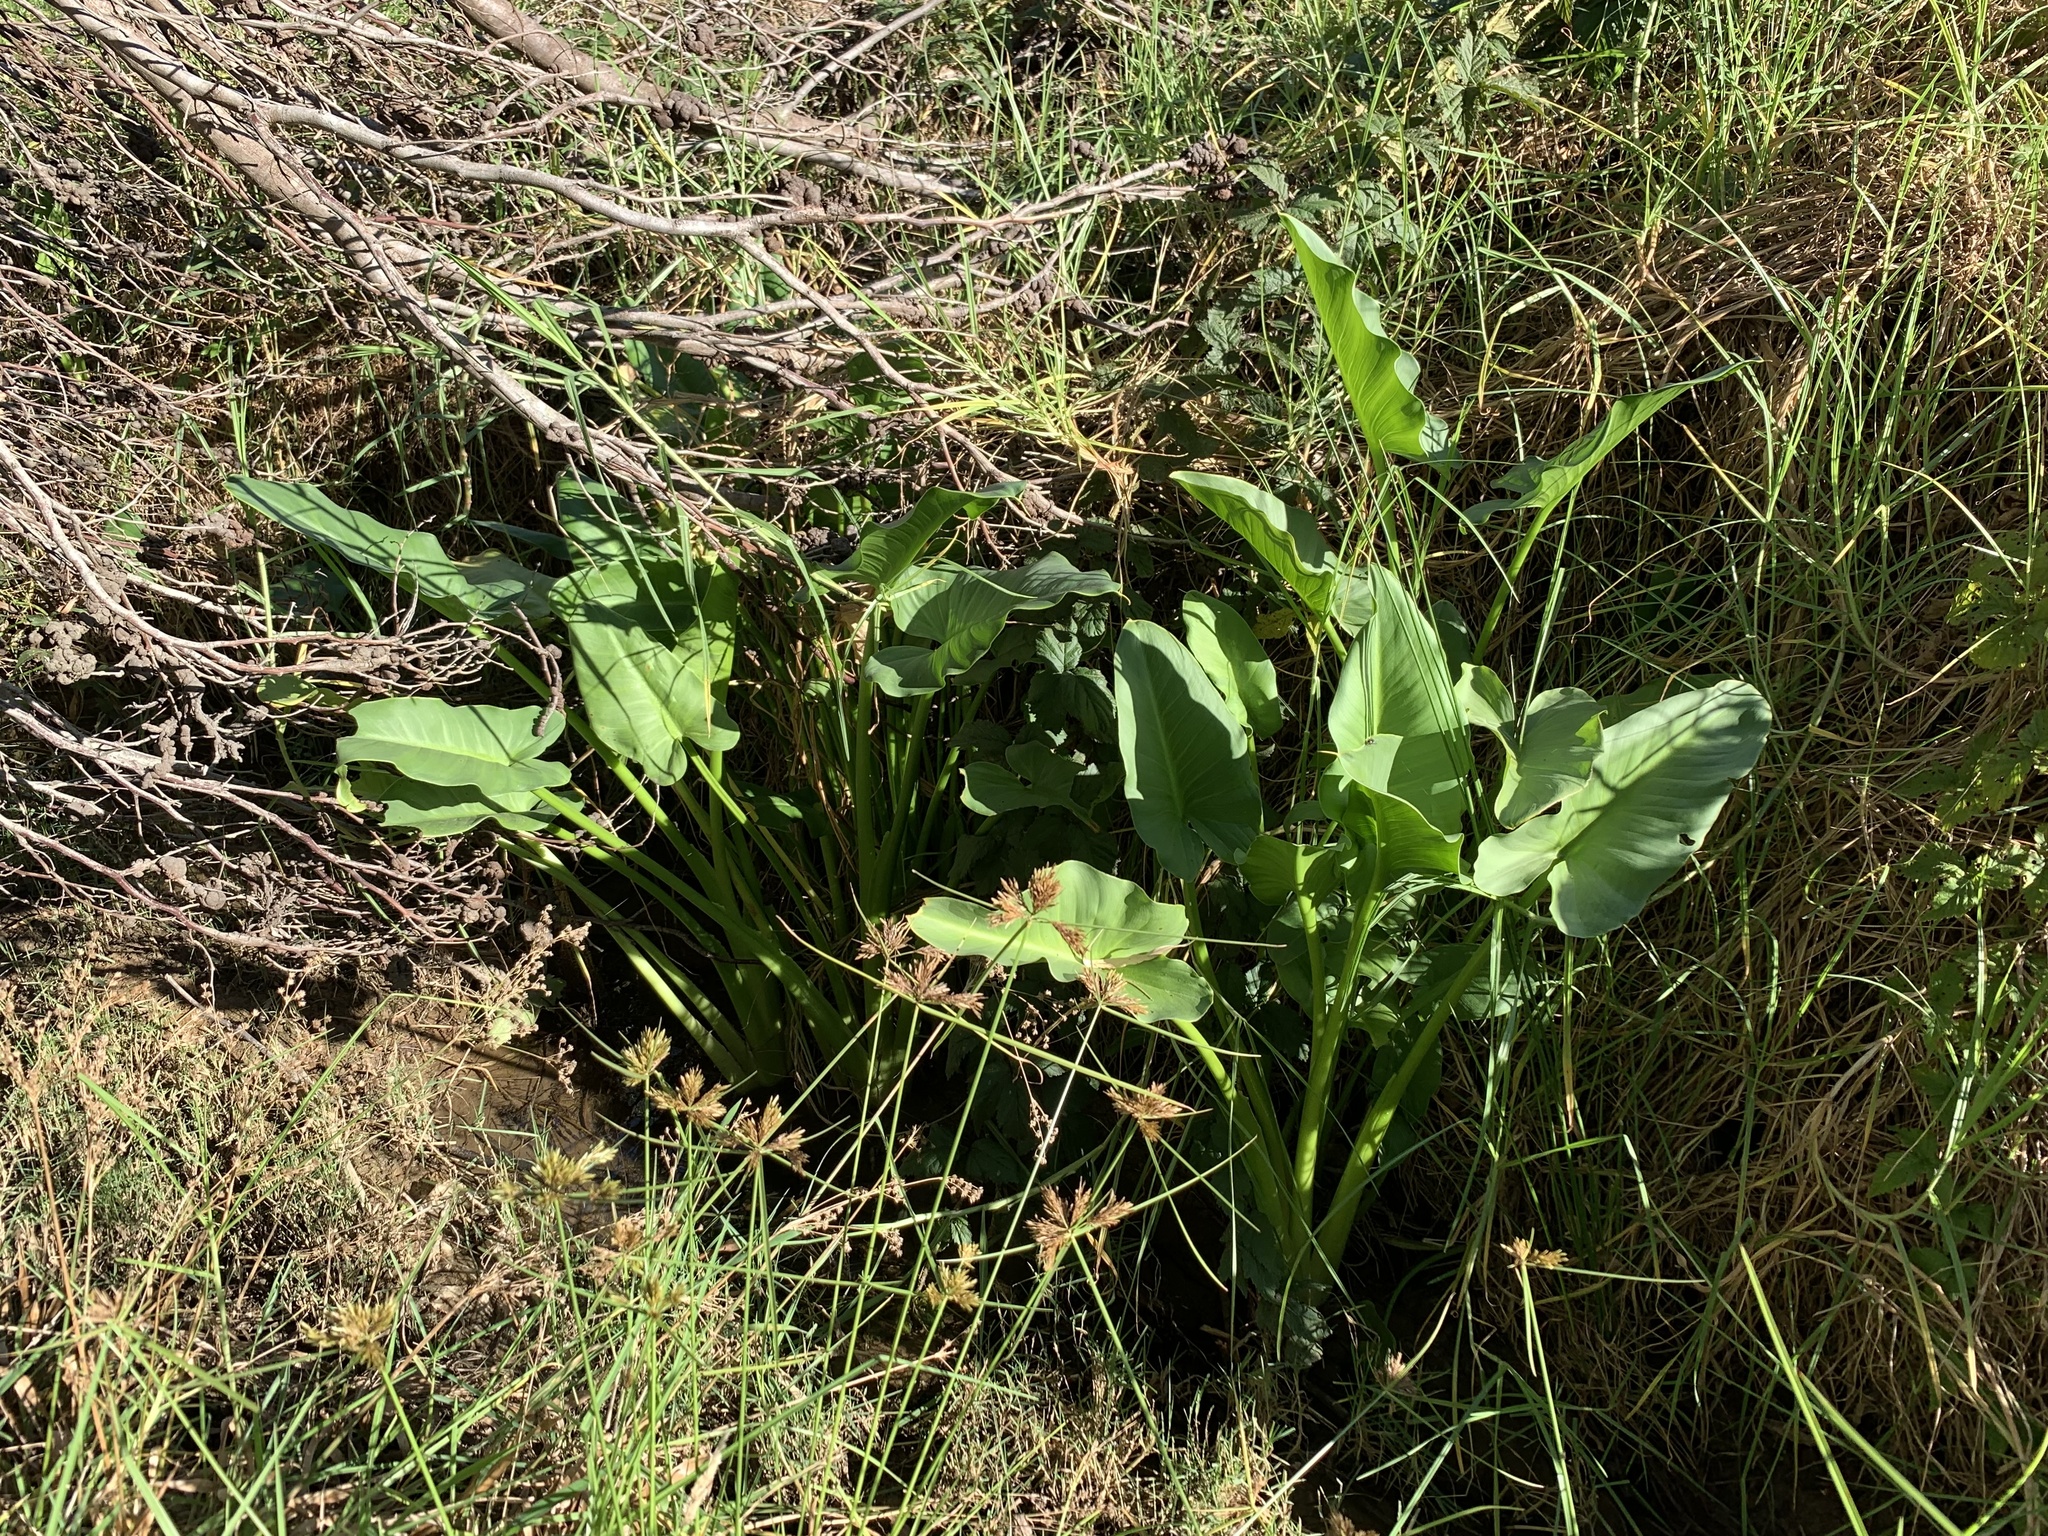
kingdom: Plantae
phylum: Tracheophyta
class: Liliopsida
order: Alismatales
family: Araceae
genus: Zantedeschia
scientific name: Zantedeschia aethiopica
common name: Altar-lily
